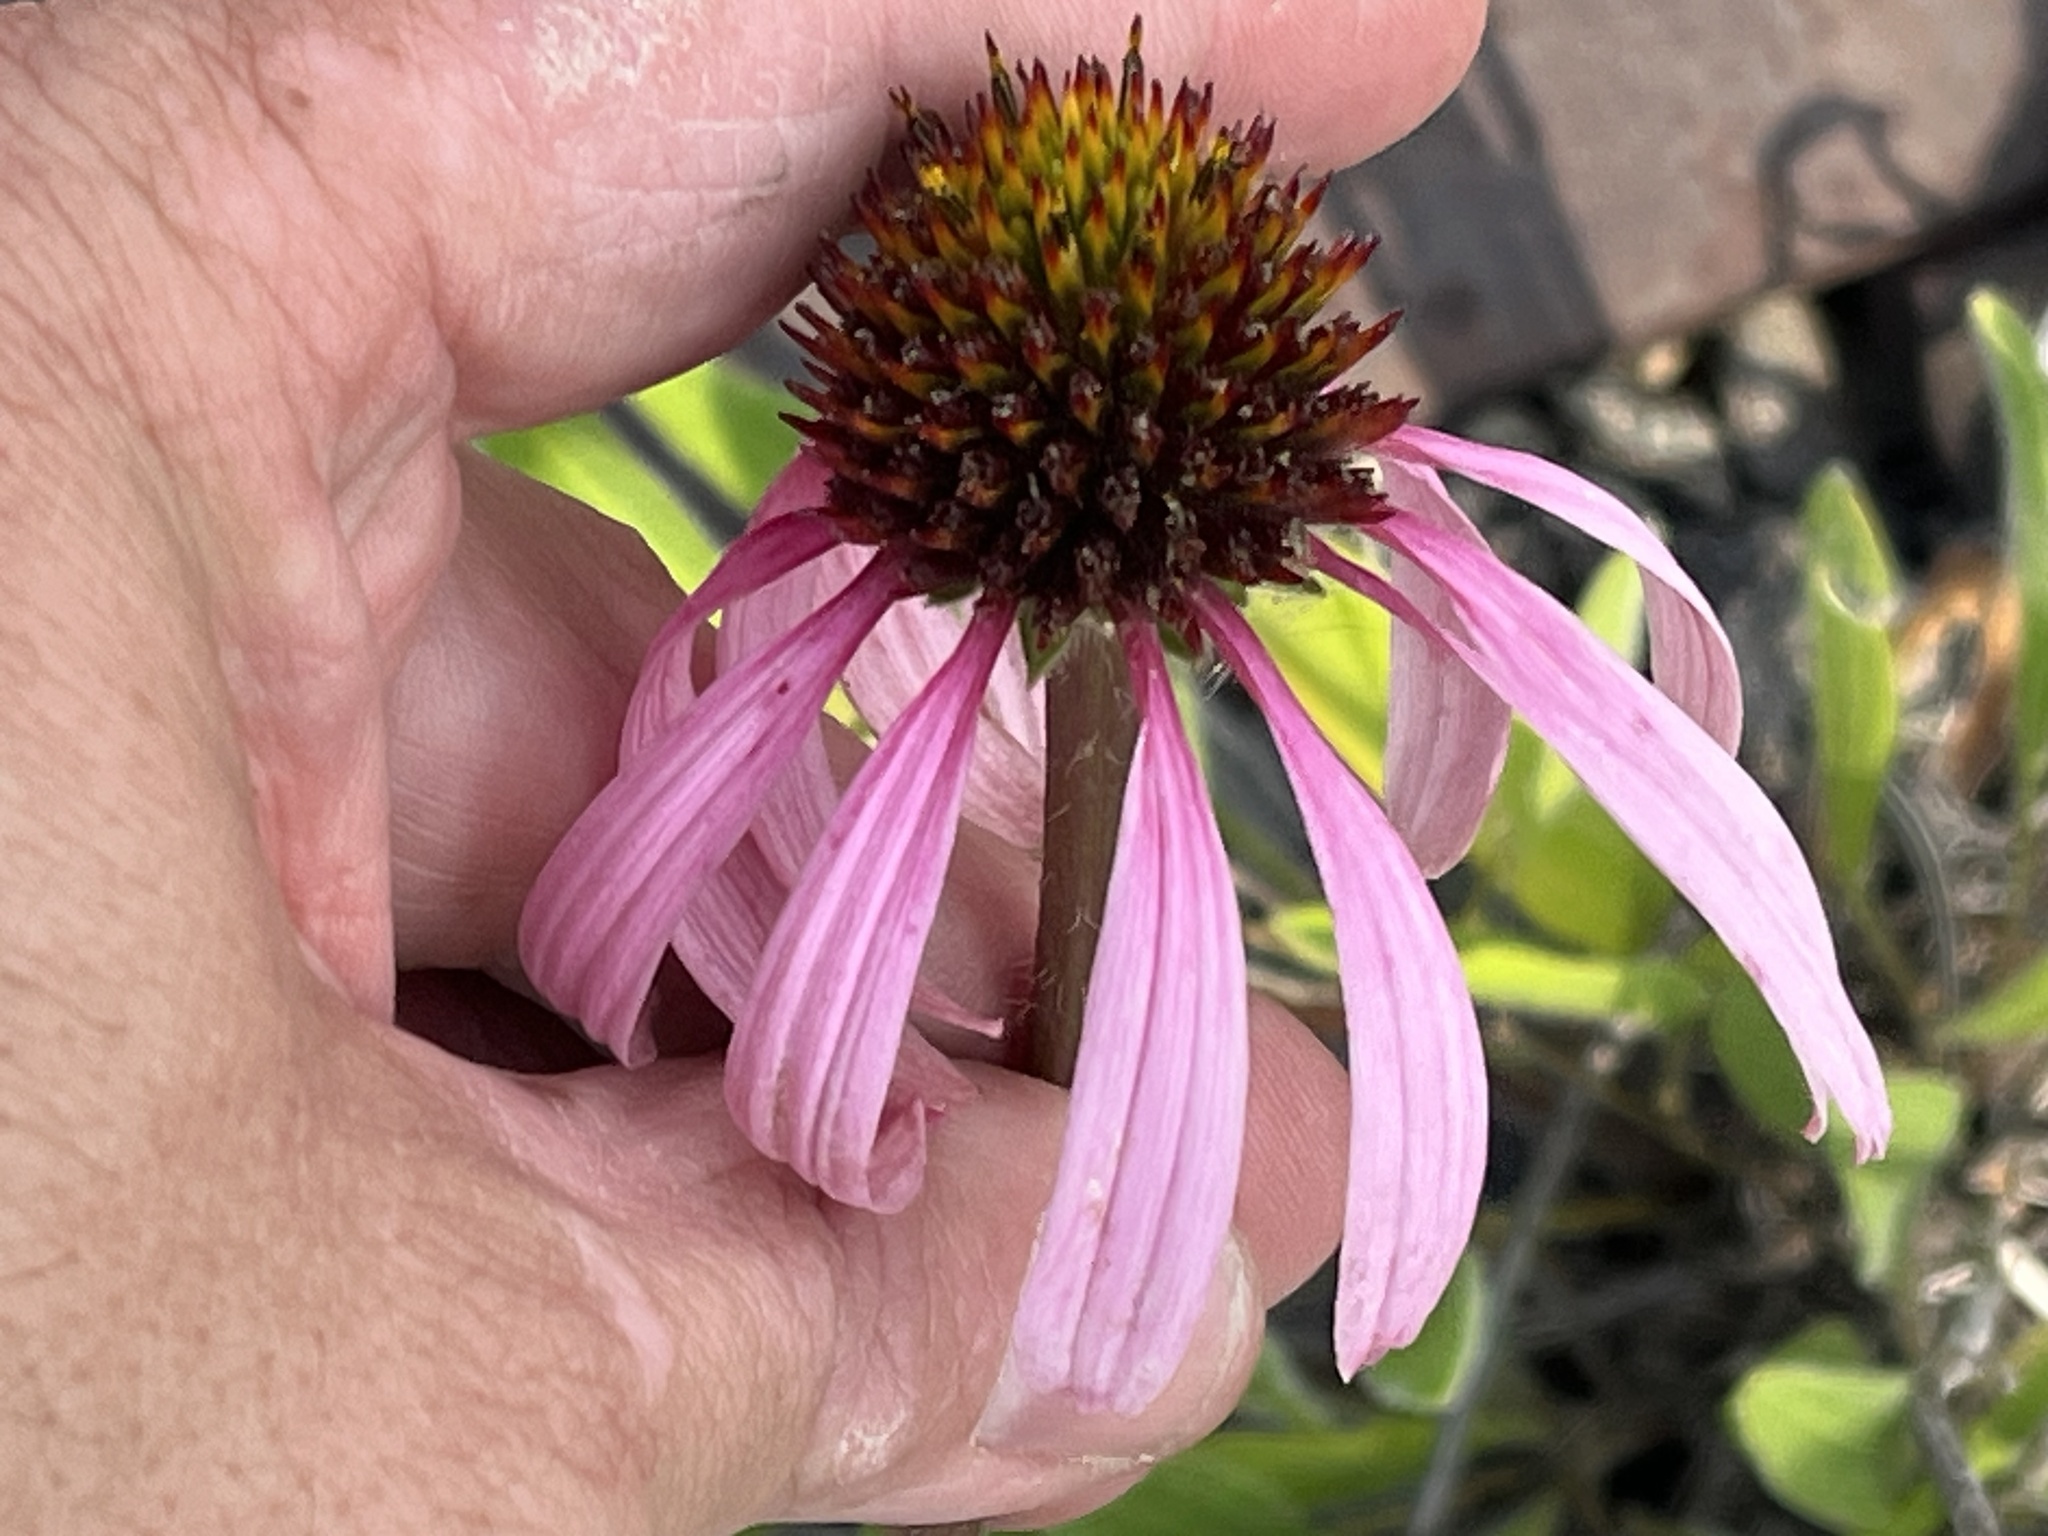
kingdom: Plantae
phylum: Tracheophyta
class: Magnoliopsida
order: Asterales
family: Asteraceae
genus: Echinacea
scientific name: Echinacea simulata
